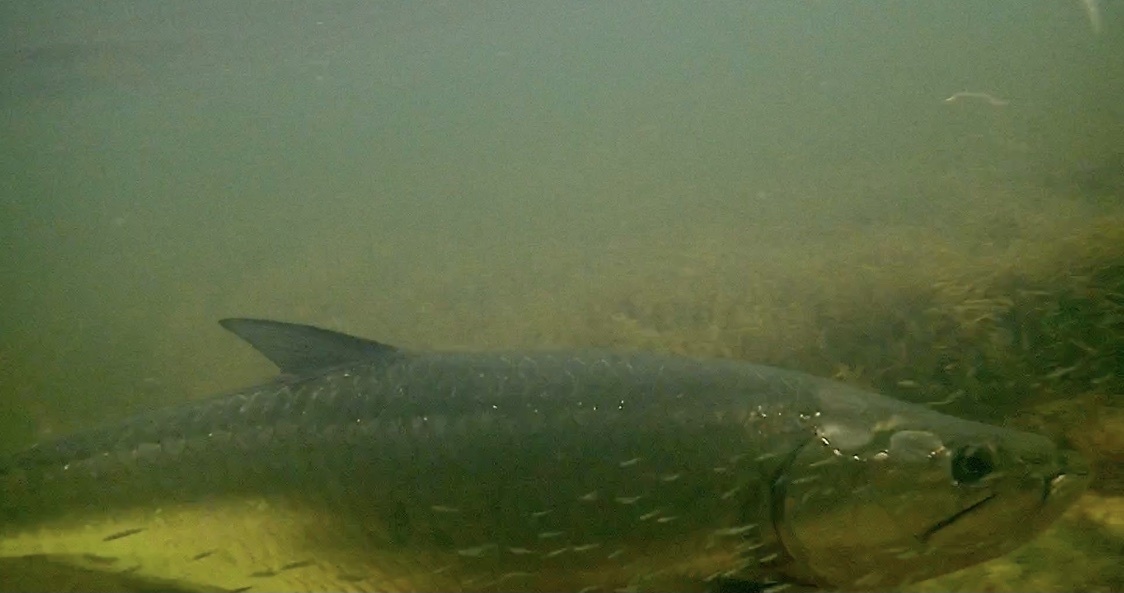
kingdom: Animalia
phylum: Chordata
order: Elopiformes
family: Megalopidae
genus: Megalops
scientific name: Megalops atlanticus
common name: Tarpon
